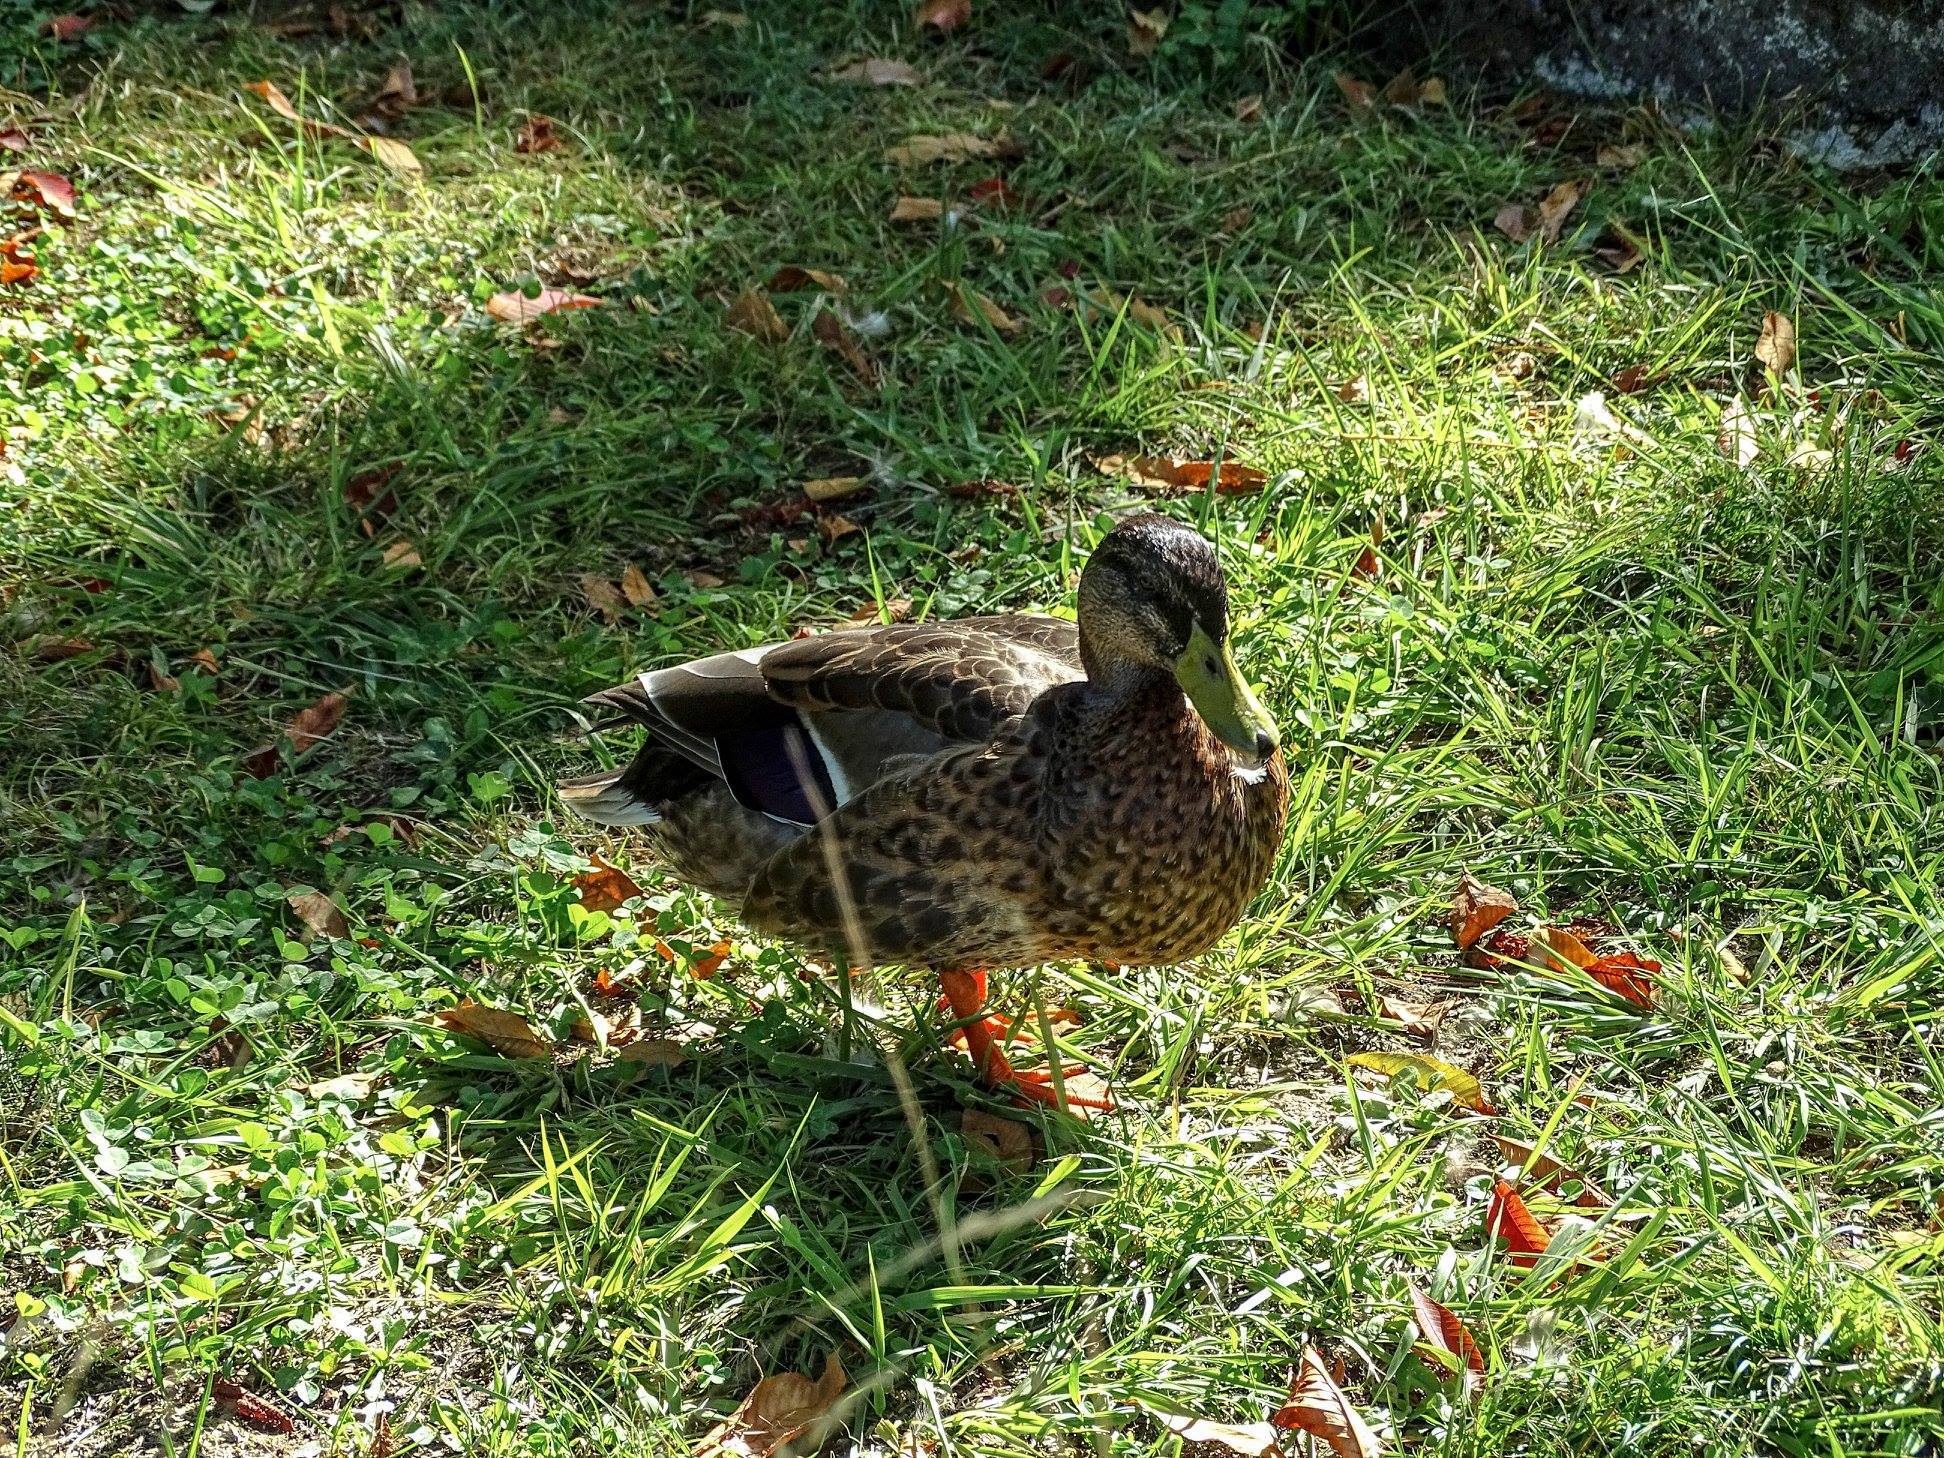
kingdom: Animalia
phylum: Chordata
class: Aves
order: Anseriformes
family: Anatidae
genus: Anas
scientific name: Anas platyrhynchos
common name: Mallard
